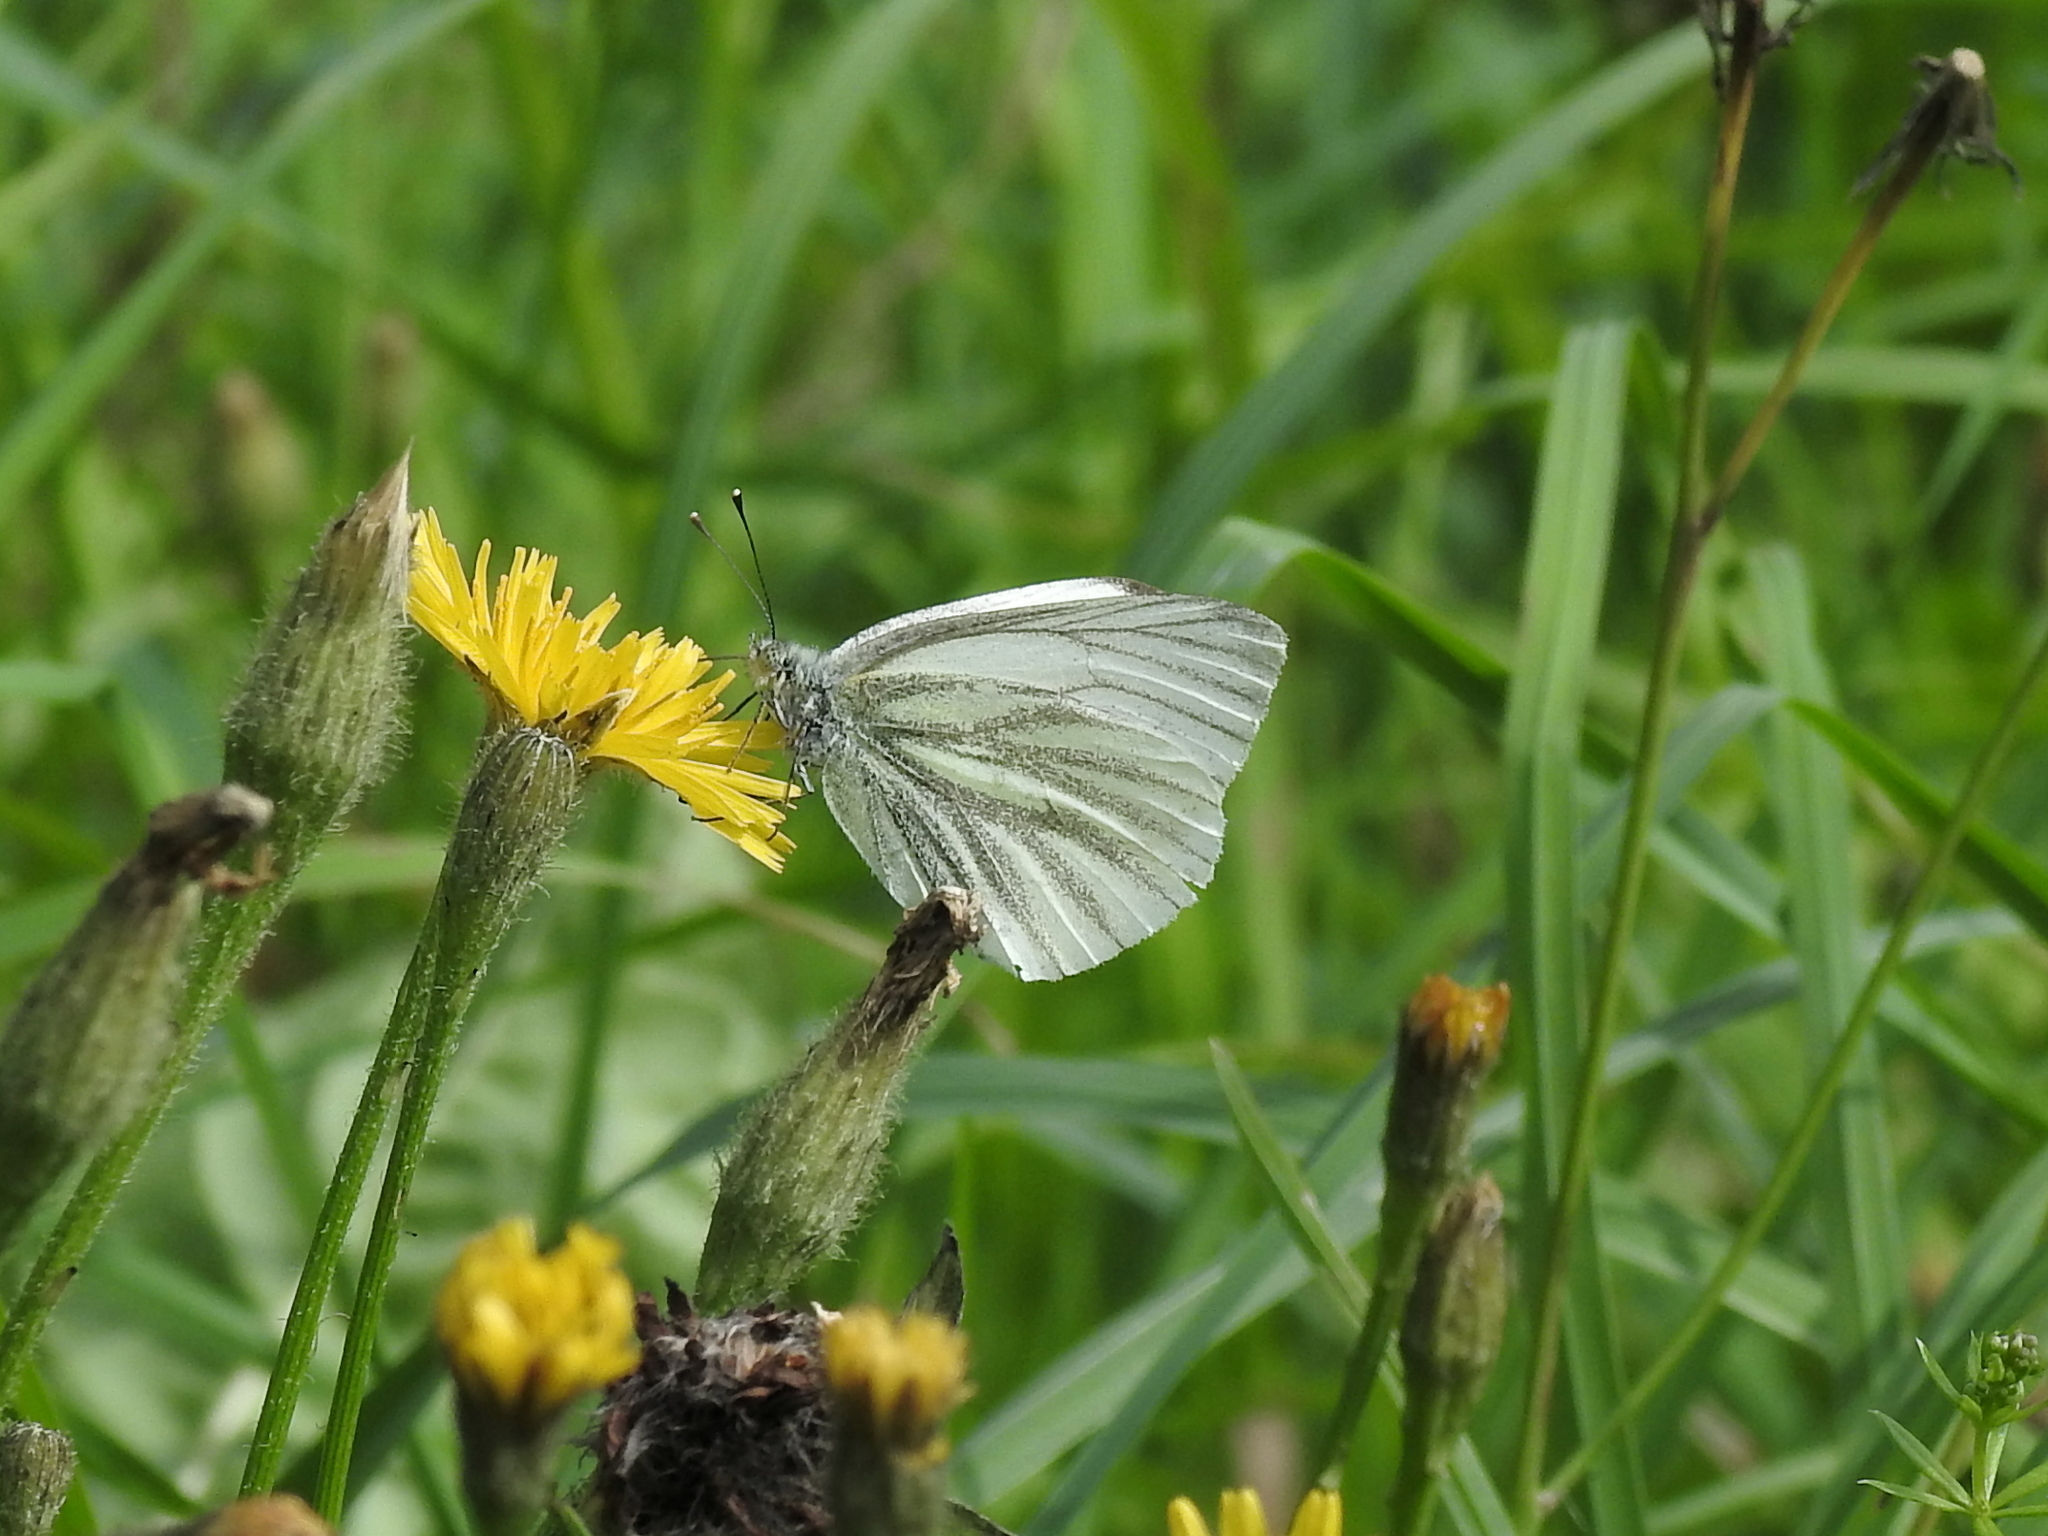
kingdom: Animalia
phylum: Arthropoda
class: Insecta
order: Lepidoptera
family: Pieridae
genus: Pieris
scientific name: Pieris napi
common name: Green-veined white
